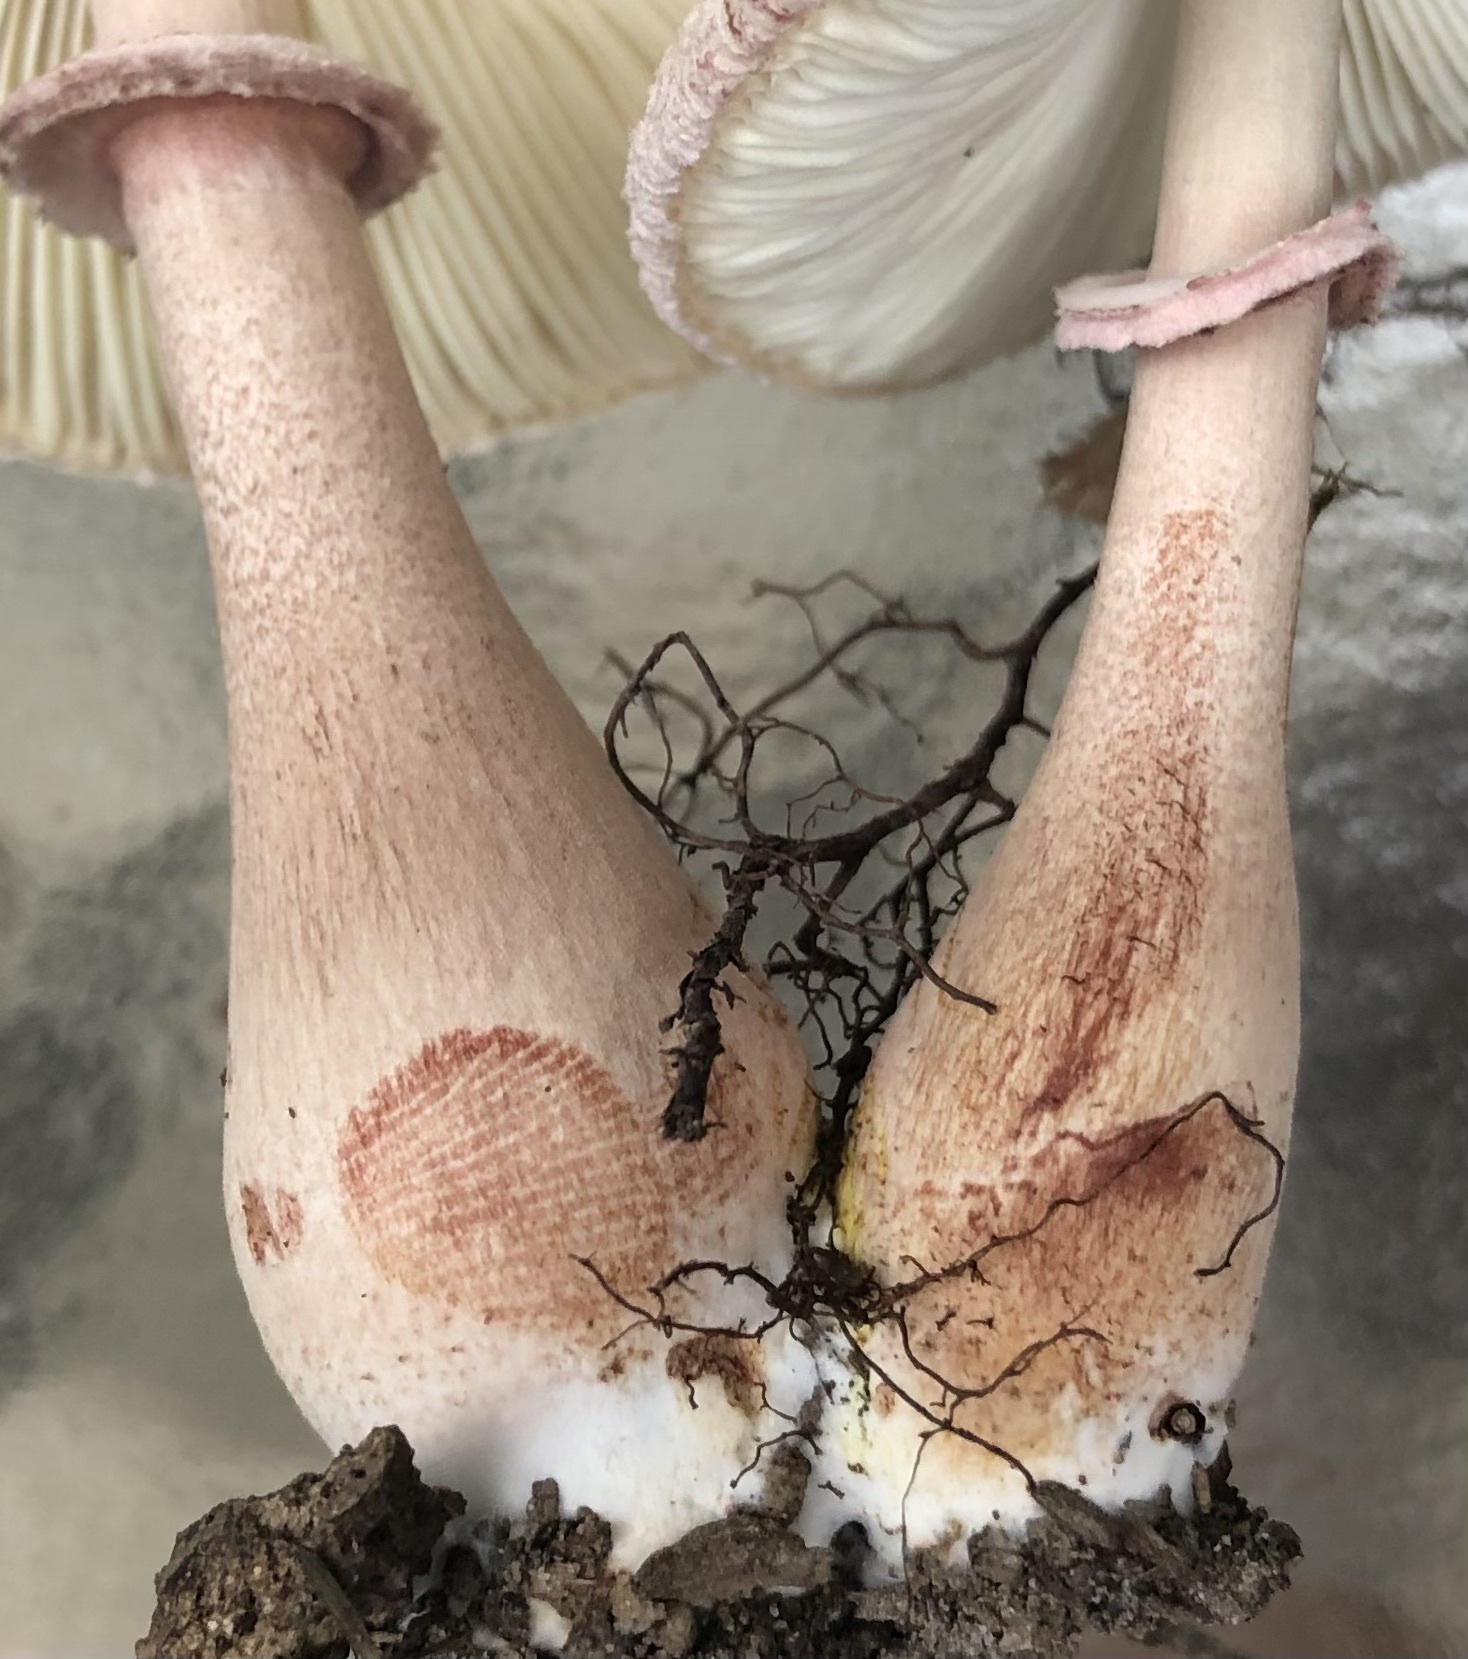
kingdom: Fungi
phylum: Basidiomycota
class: Agaricomycetes
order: Agaricales
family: Agaricaceae
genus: Leucoagaricus
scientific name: Leucoagaricus americanus
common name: Reddening lepiota
